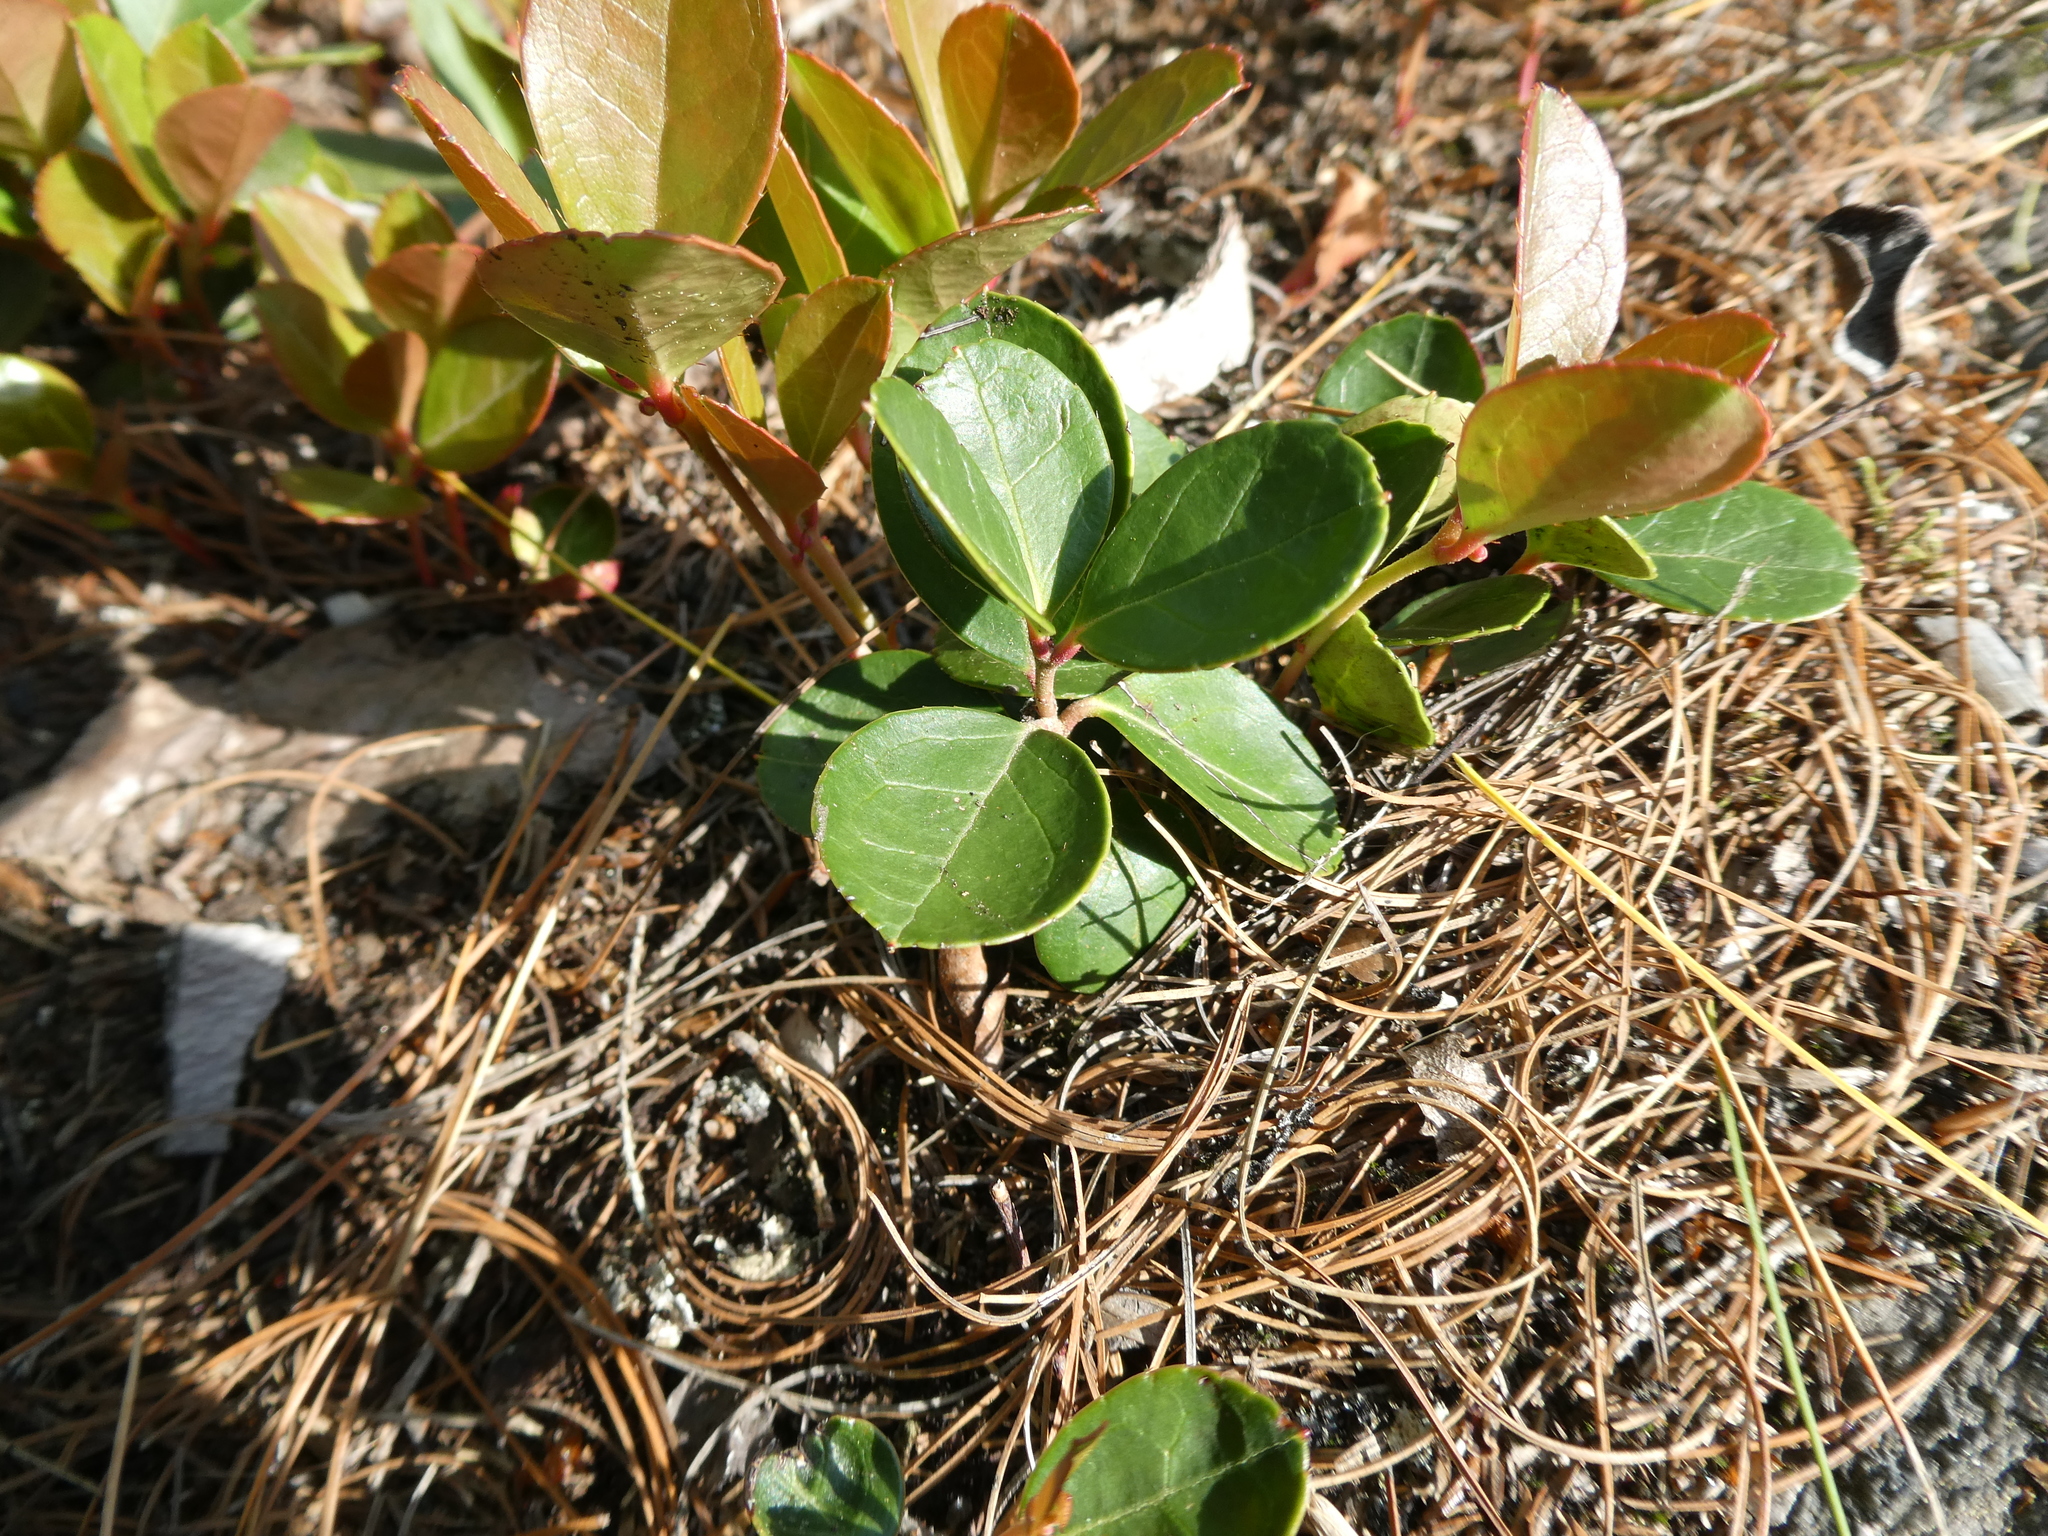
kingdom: Plantae
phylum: Tracheophyta
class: Magnoliopsida
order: Ericales
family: Ericaceae
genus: Gaultheria
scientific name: Gaultheria procumbens
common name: Checkerberry
